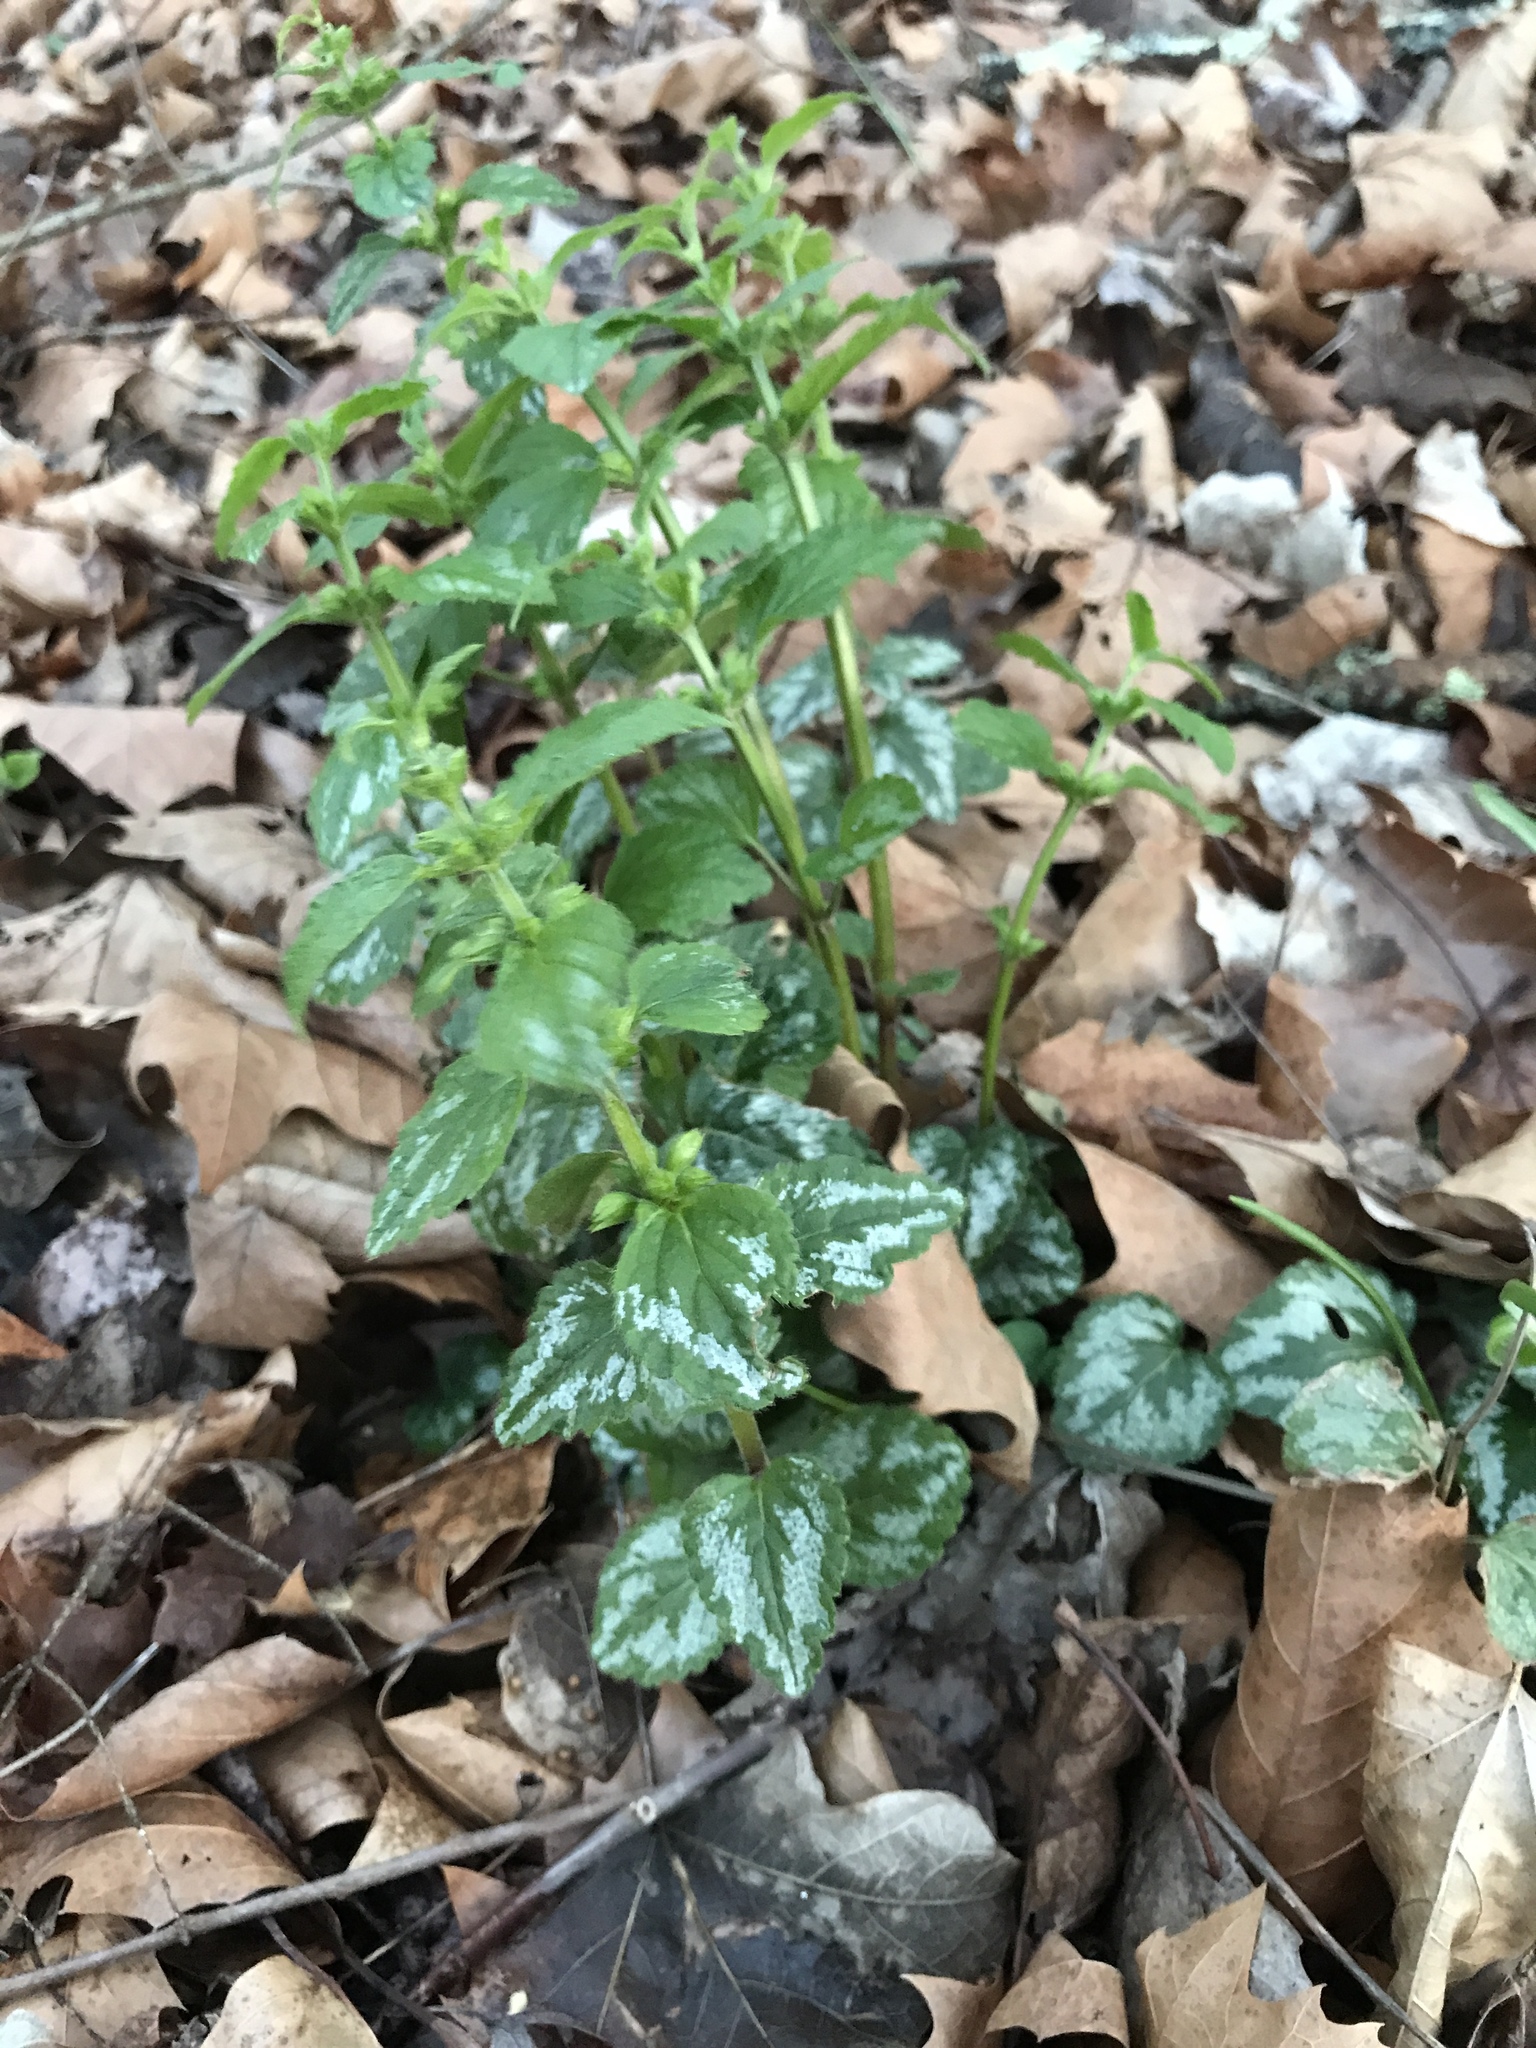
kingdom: Plantae
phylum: Tracheophyta
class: Magnoliopsida
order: Lamiales
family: Lamiaceae
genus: Lamium
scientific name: Lamium galeobdolon
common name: Yellow archangel
